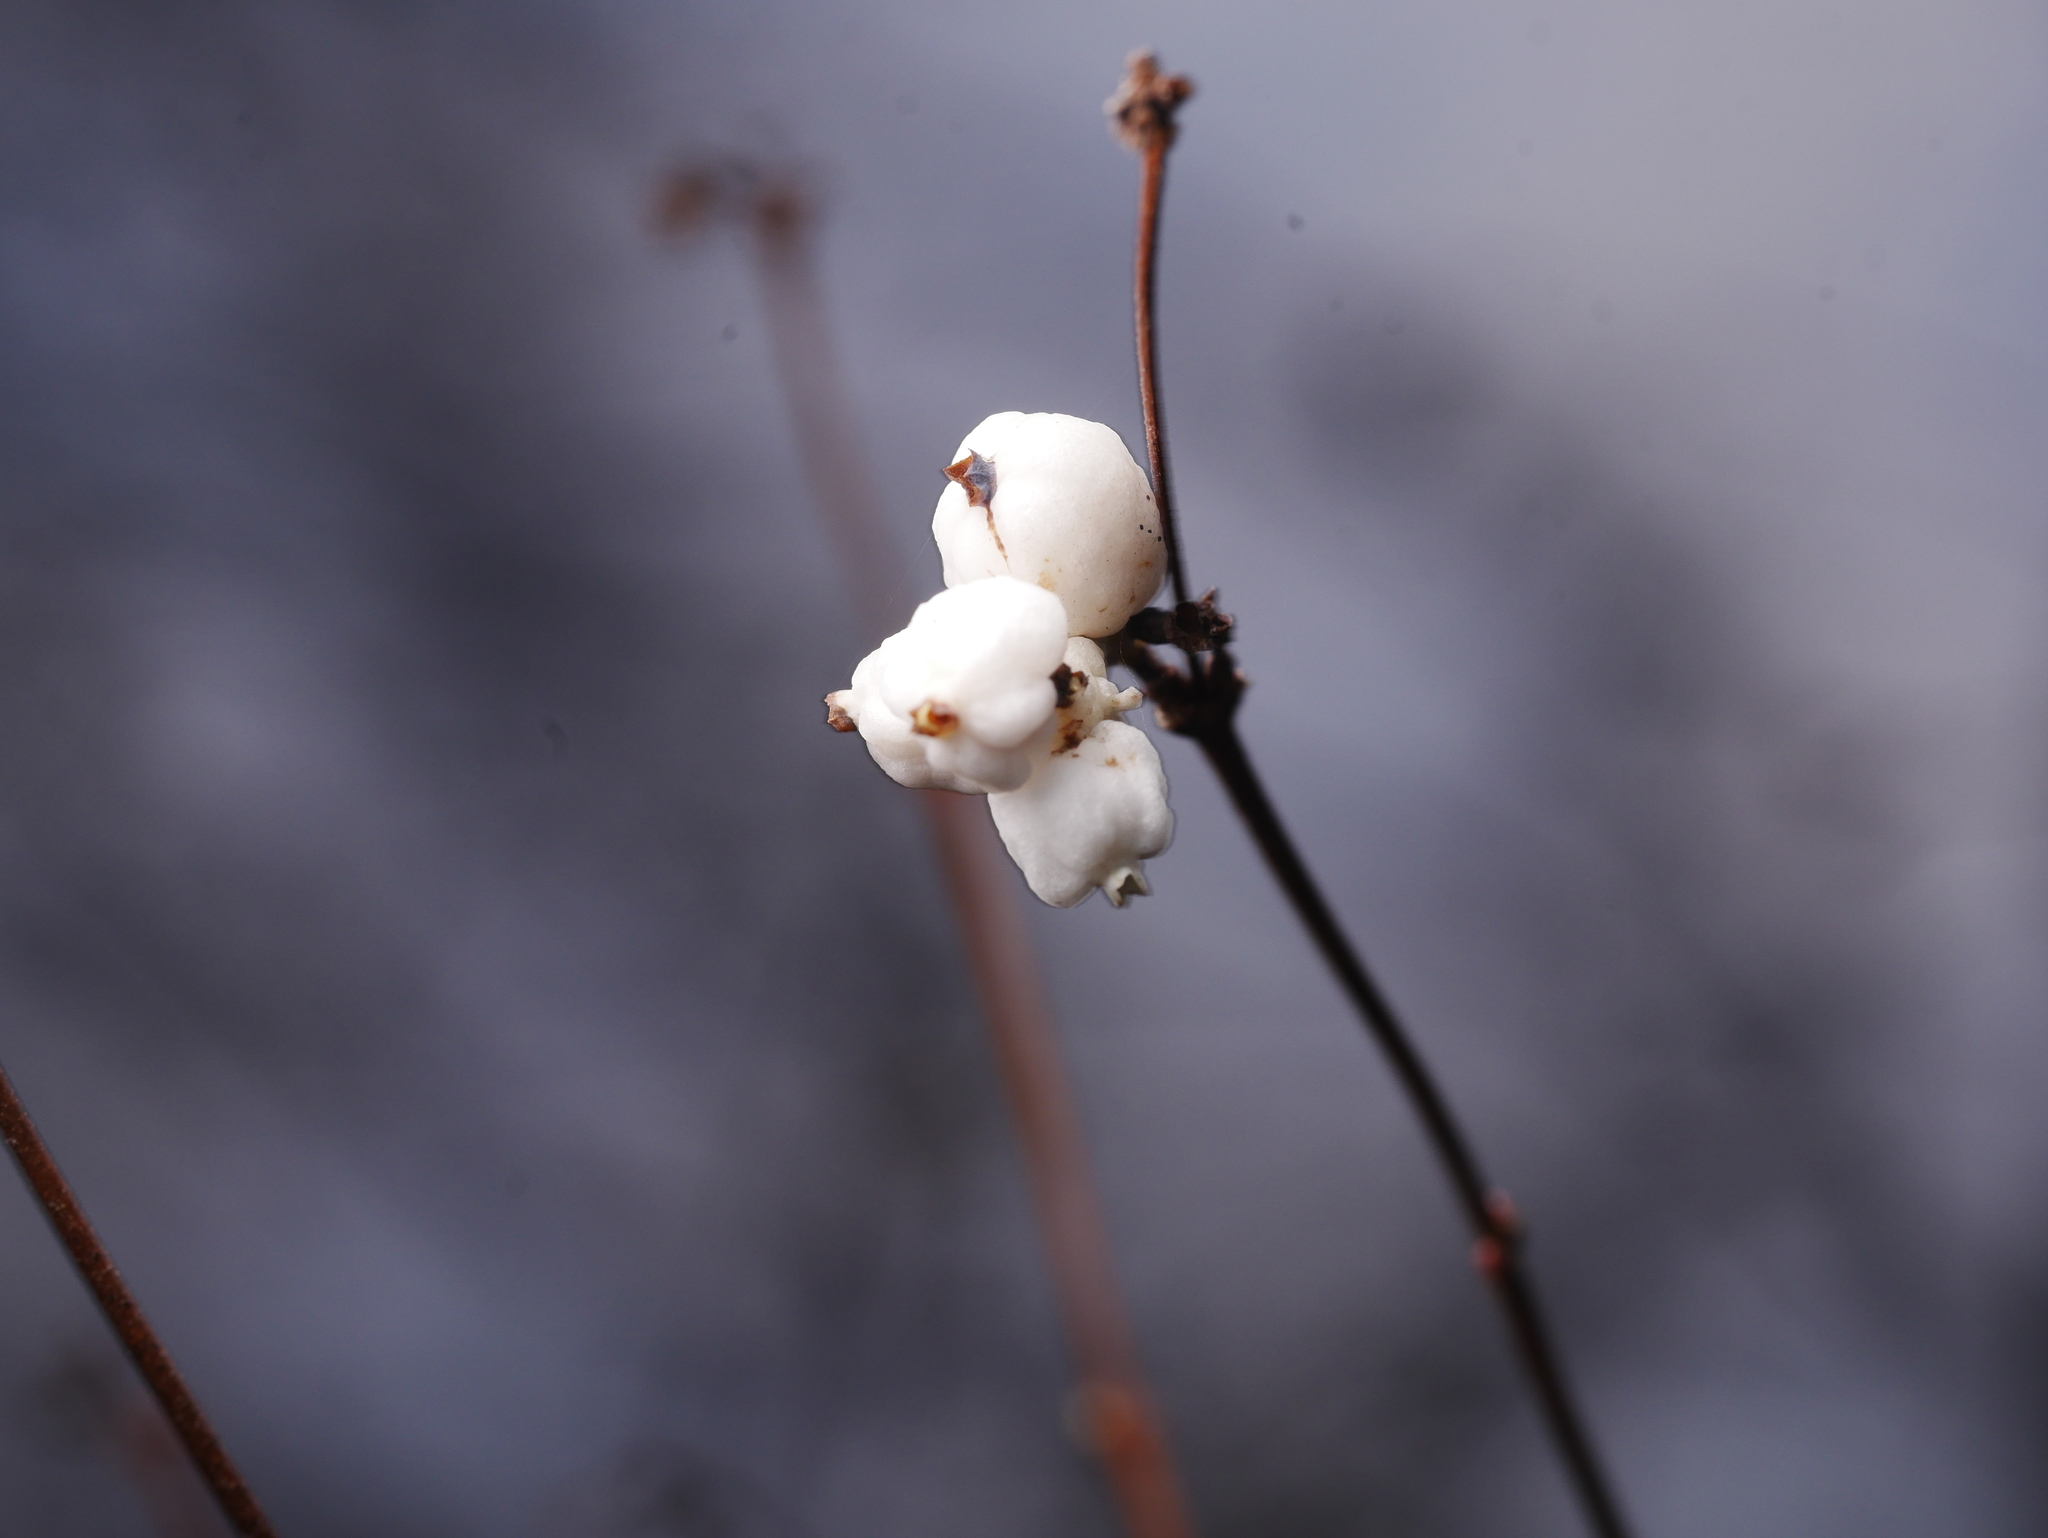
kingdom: Plantae
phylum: Tracheophyta
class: Magnoliopsida
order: Dipsacales
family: Caprifoliaceae
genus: Symphoricarpos
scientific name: Symphoricarpos albus
